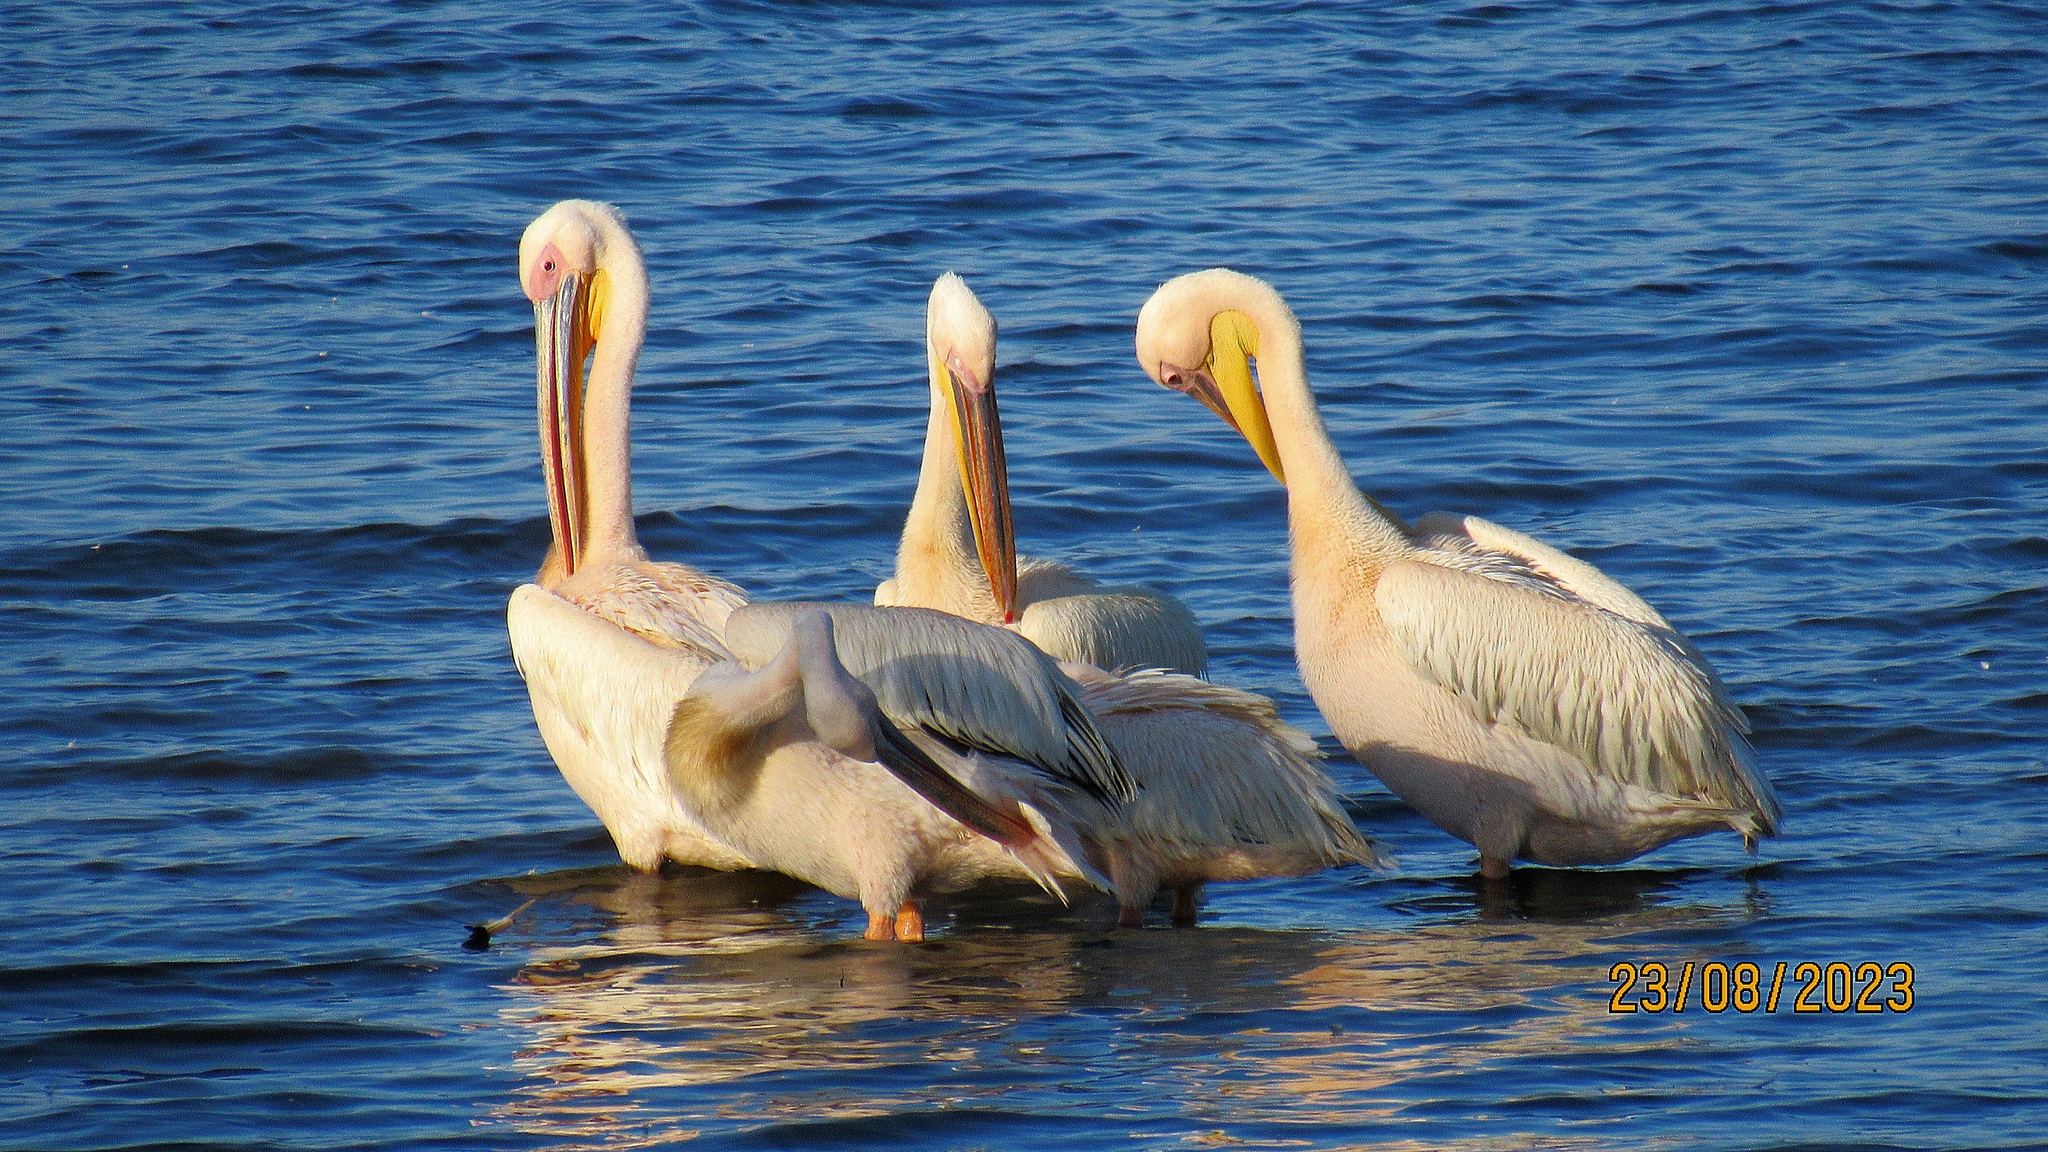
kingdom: Animalia
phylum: Chordata
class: Aves
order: Pelecaniformes
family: Pelecanidae
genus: Pelecanus
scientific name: Pelecanus onocrotalus
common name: Great white pelican
